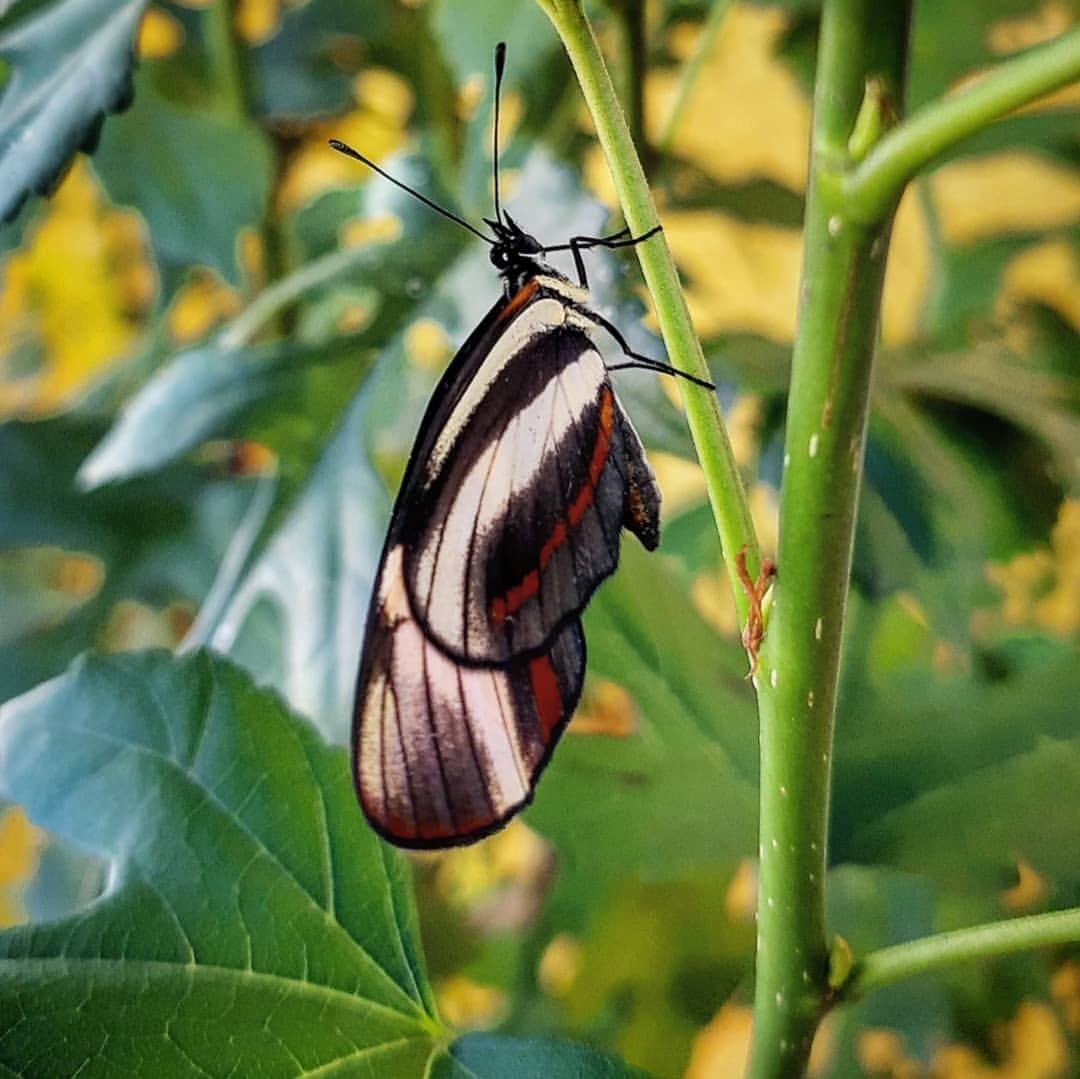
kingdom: Animalia
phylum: Arthropoda
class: Insecta
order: Lepidoptera
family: Nymphalidae
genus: Eresia
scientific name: Eresia lansdorfi
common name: Lansdorf's crescent
